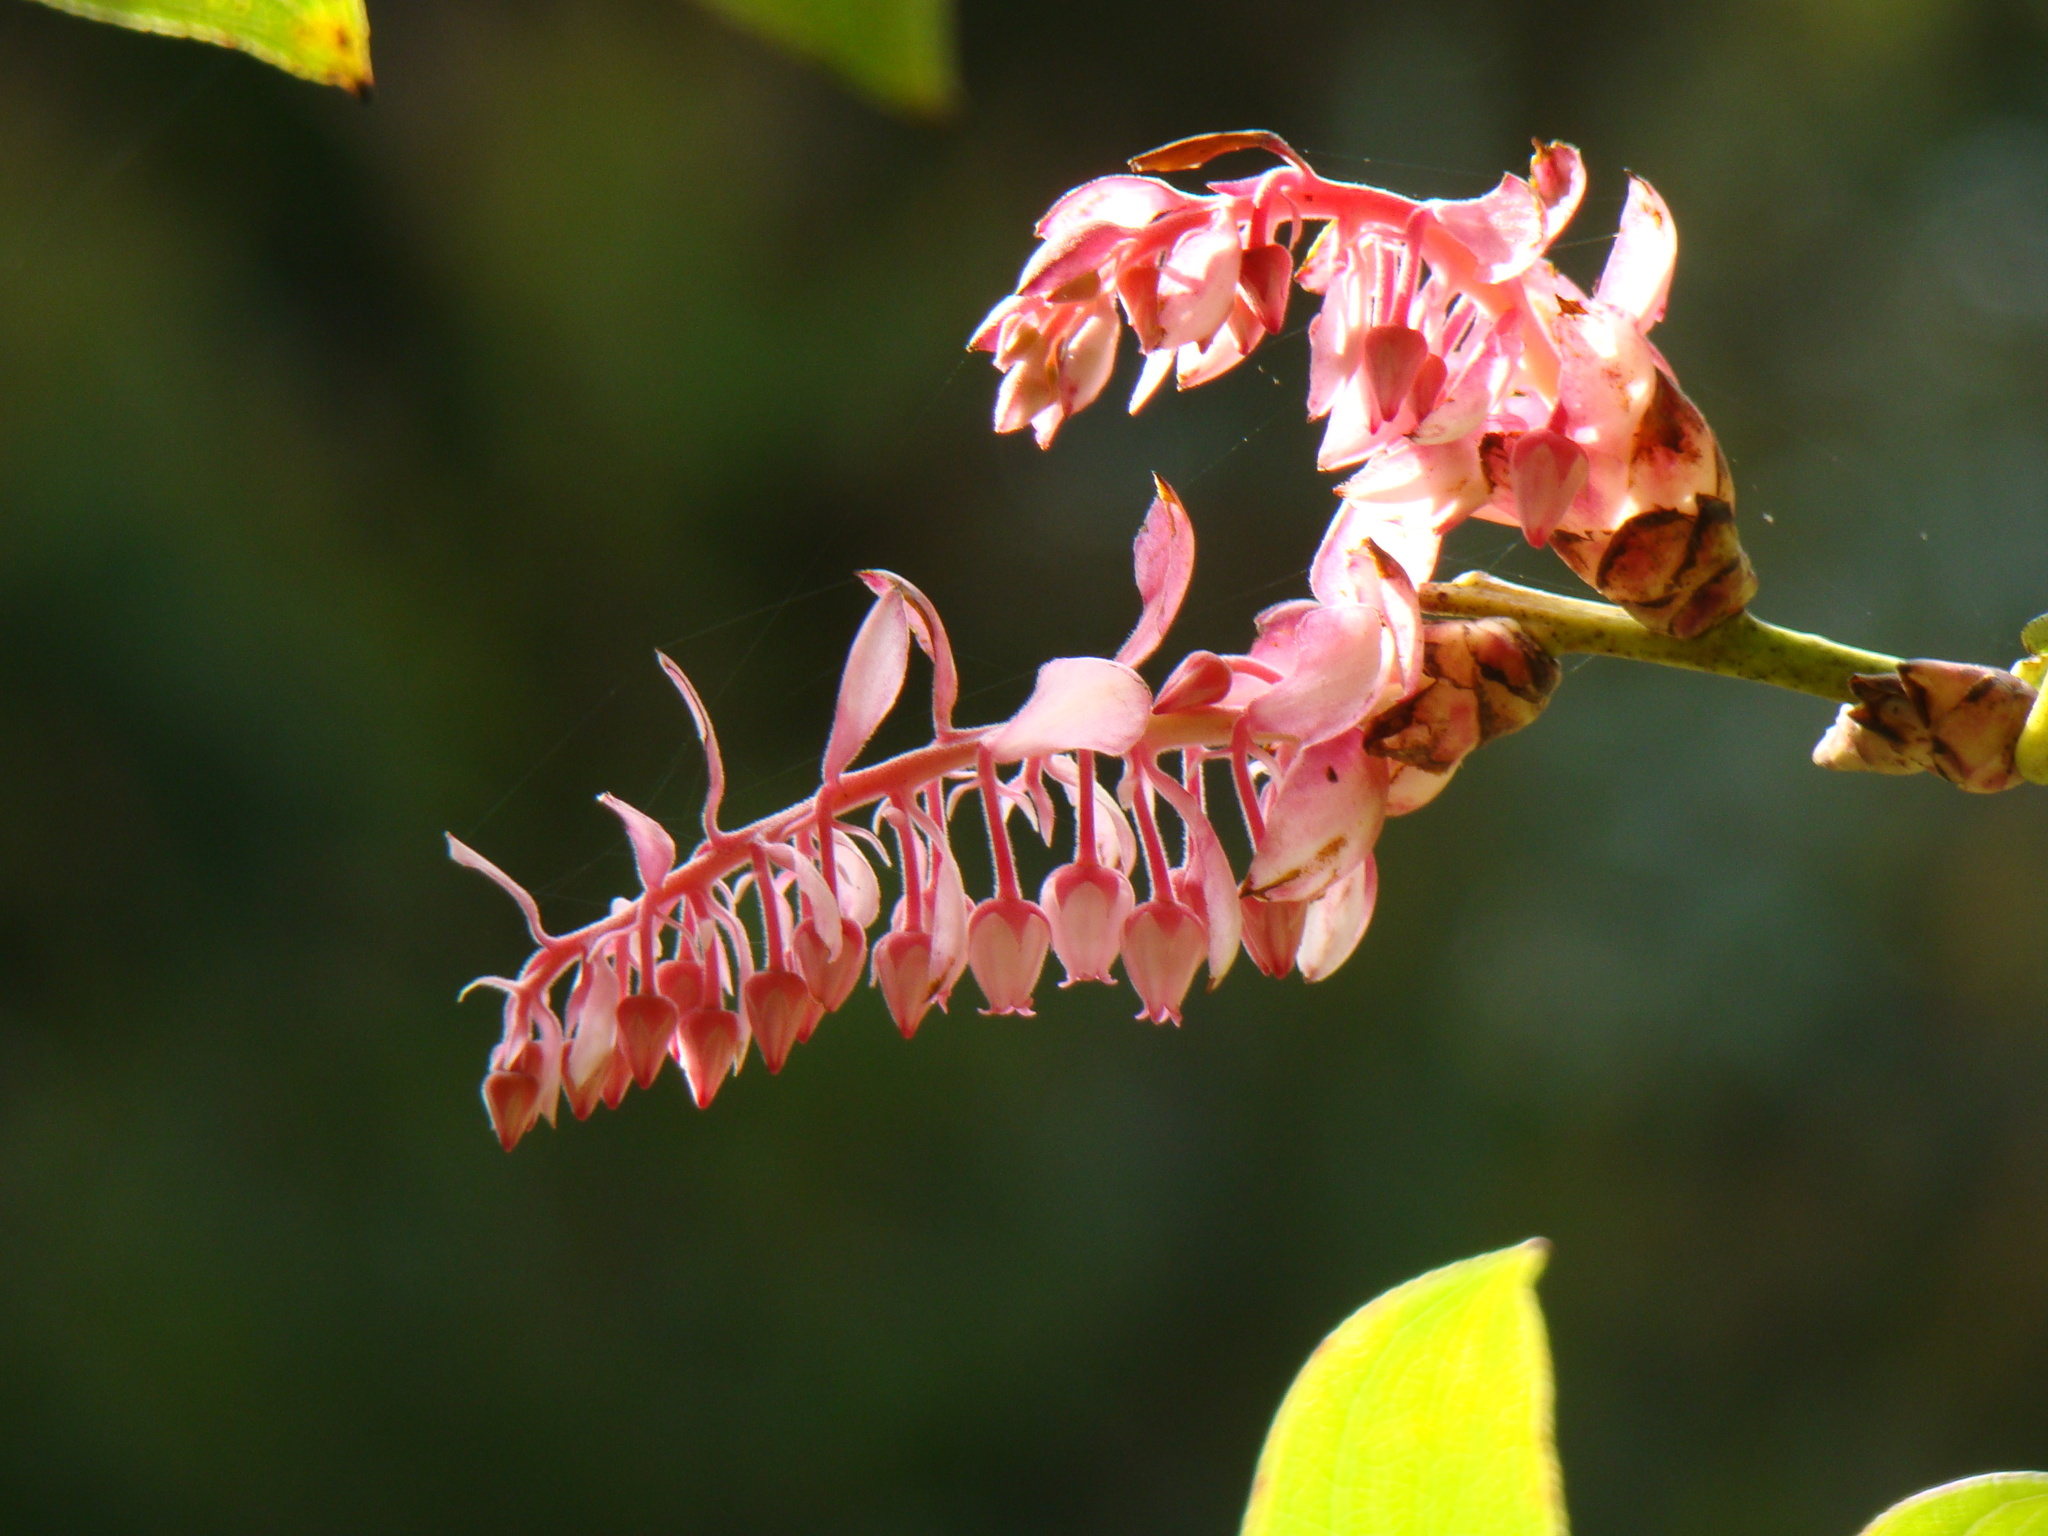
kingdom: Plantae
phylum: Tracheophyta
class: Magnoliopsida
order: Ericales
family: Ericaceae
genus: Gaultheria
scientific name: Gaultheria erecta
